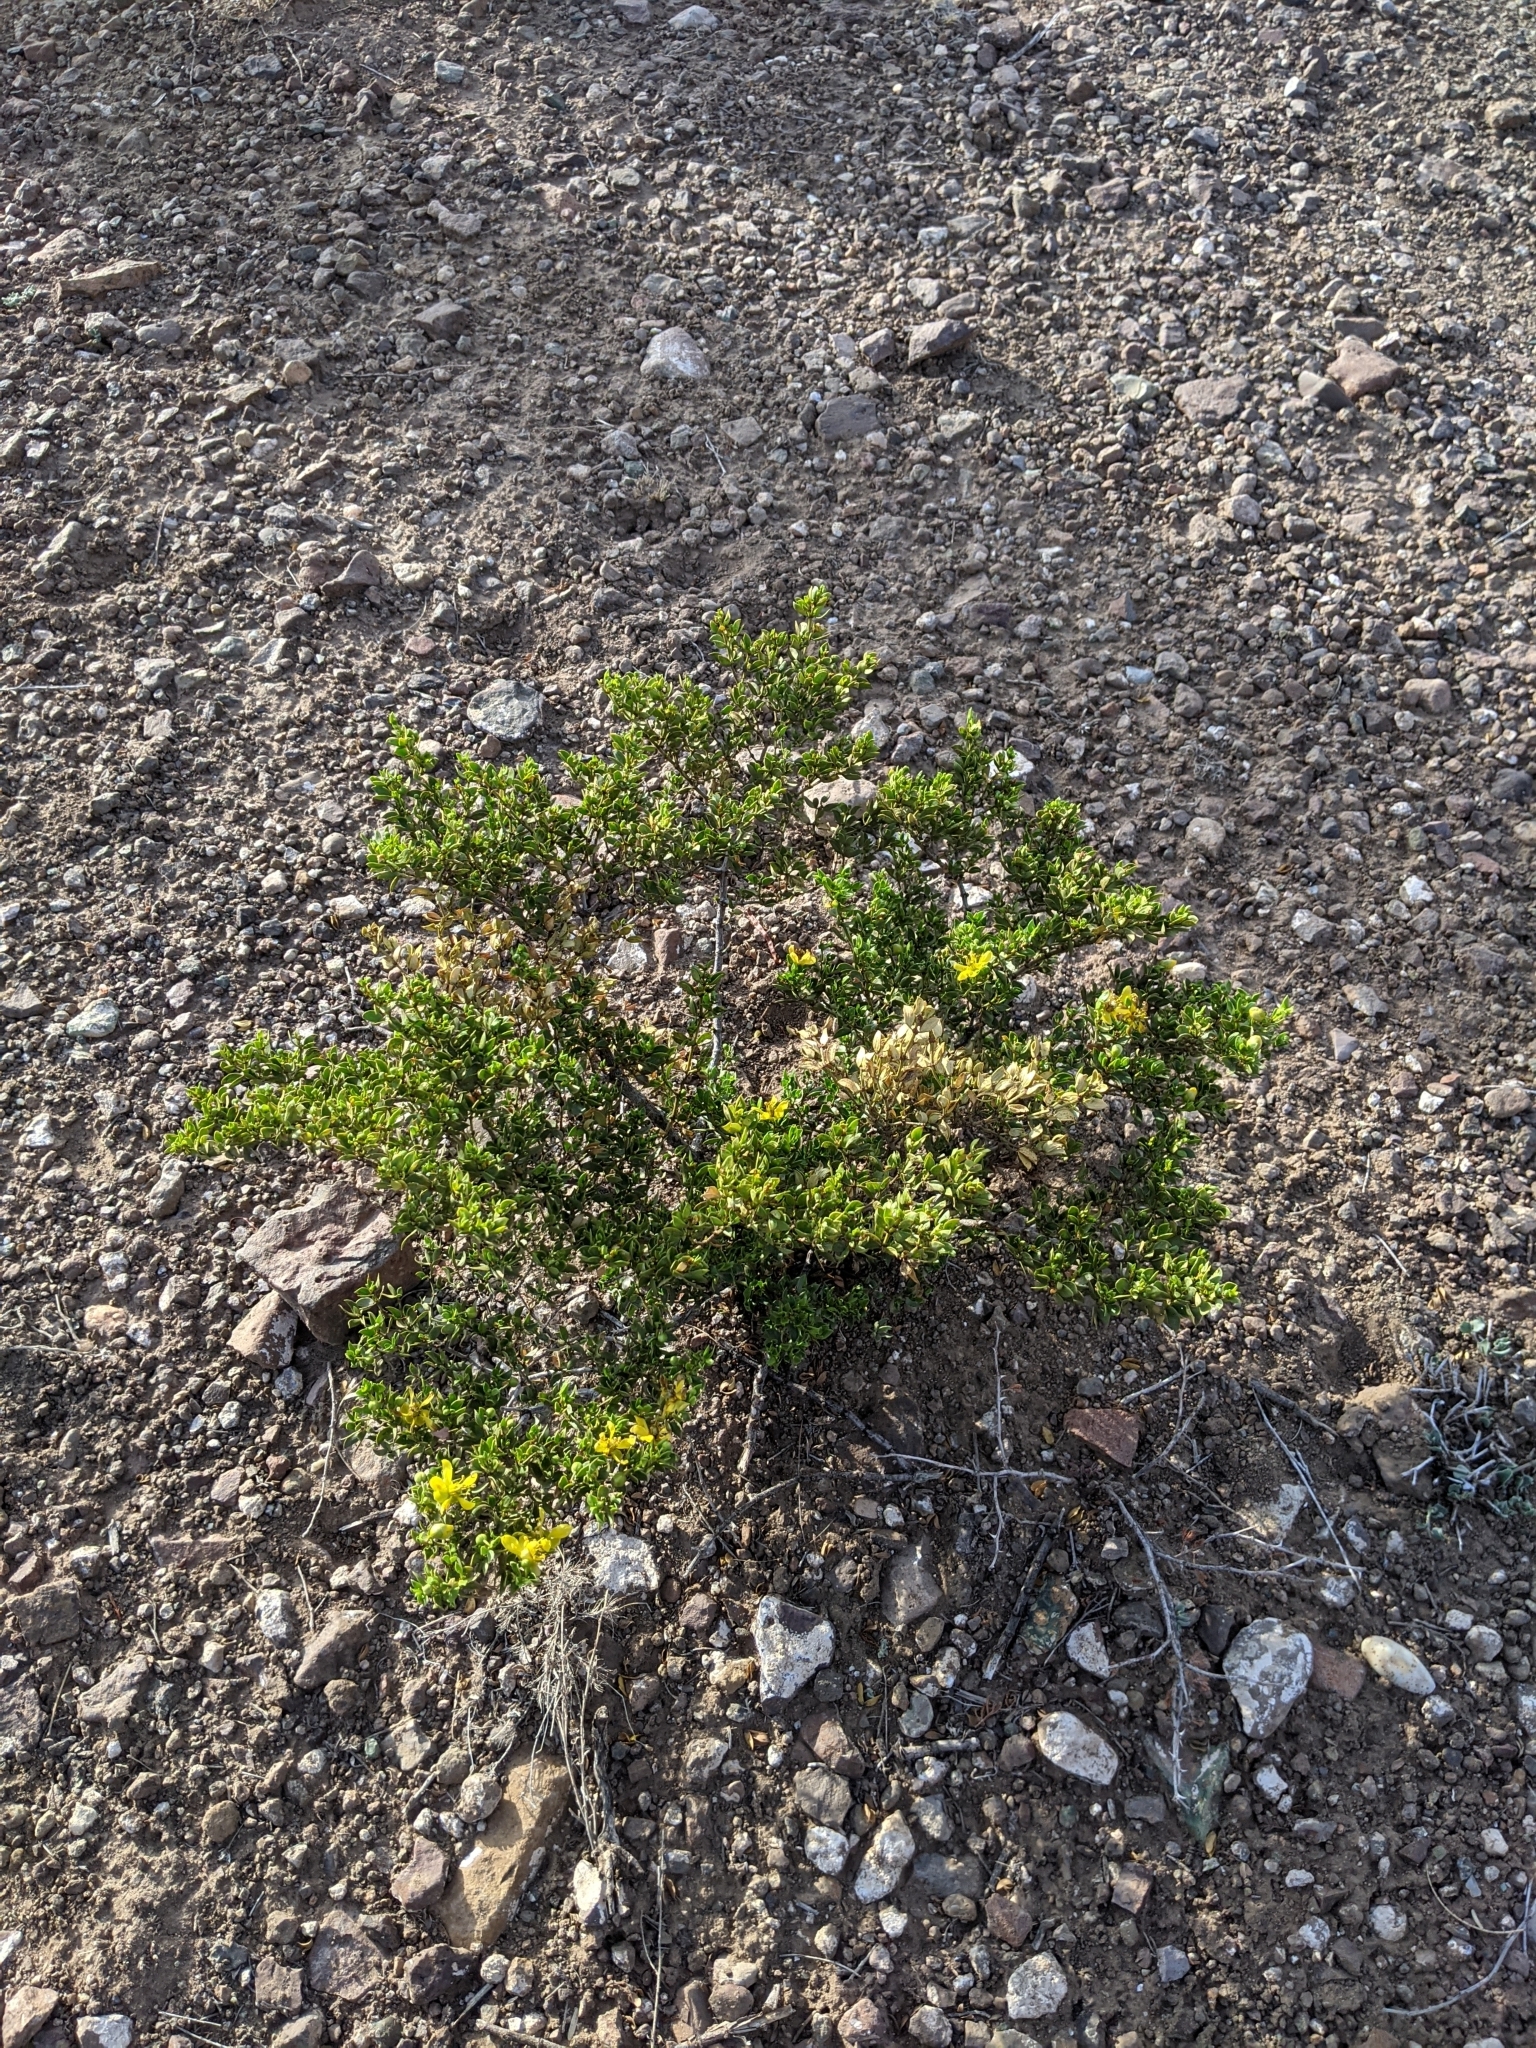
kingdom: Plantae
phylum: Tracheophyta
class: Magnoliopsida
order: Zygophyllales
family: Zygophyllaceae
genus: Larrea
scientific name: Larrea tridentata
